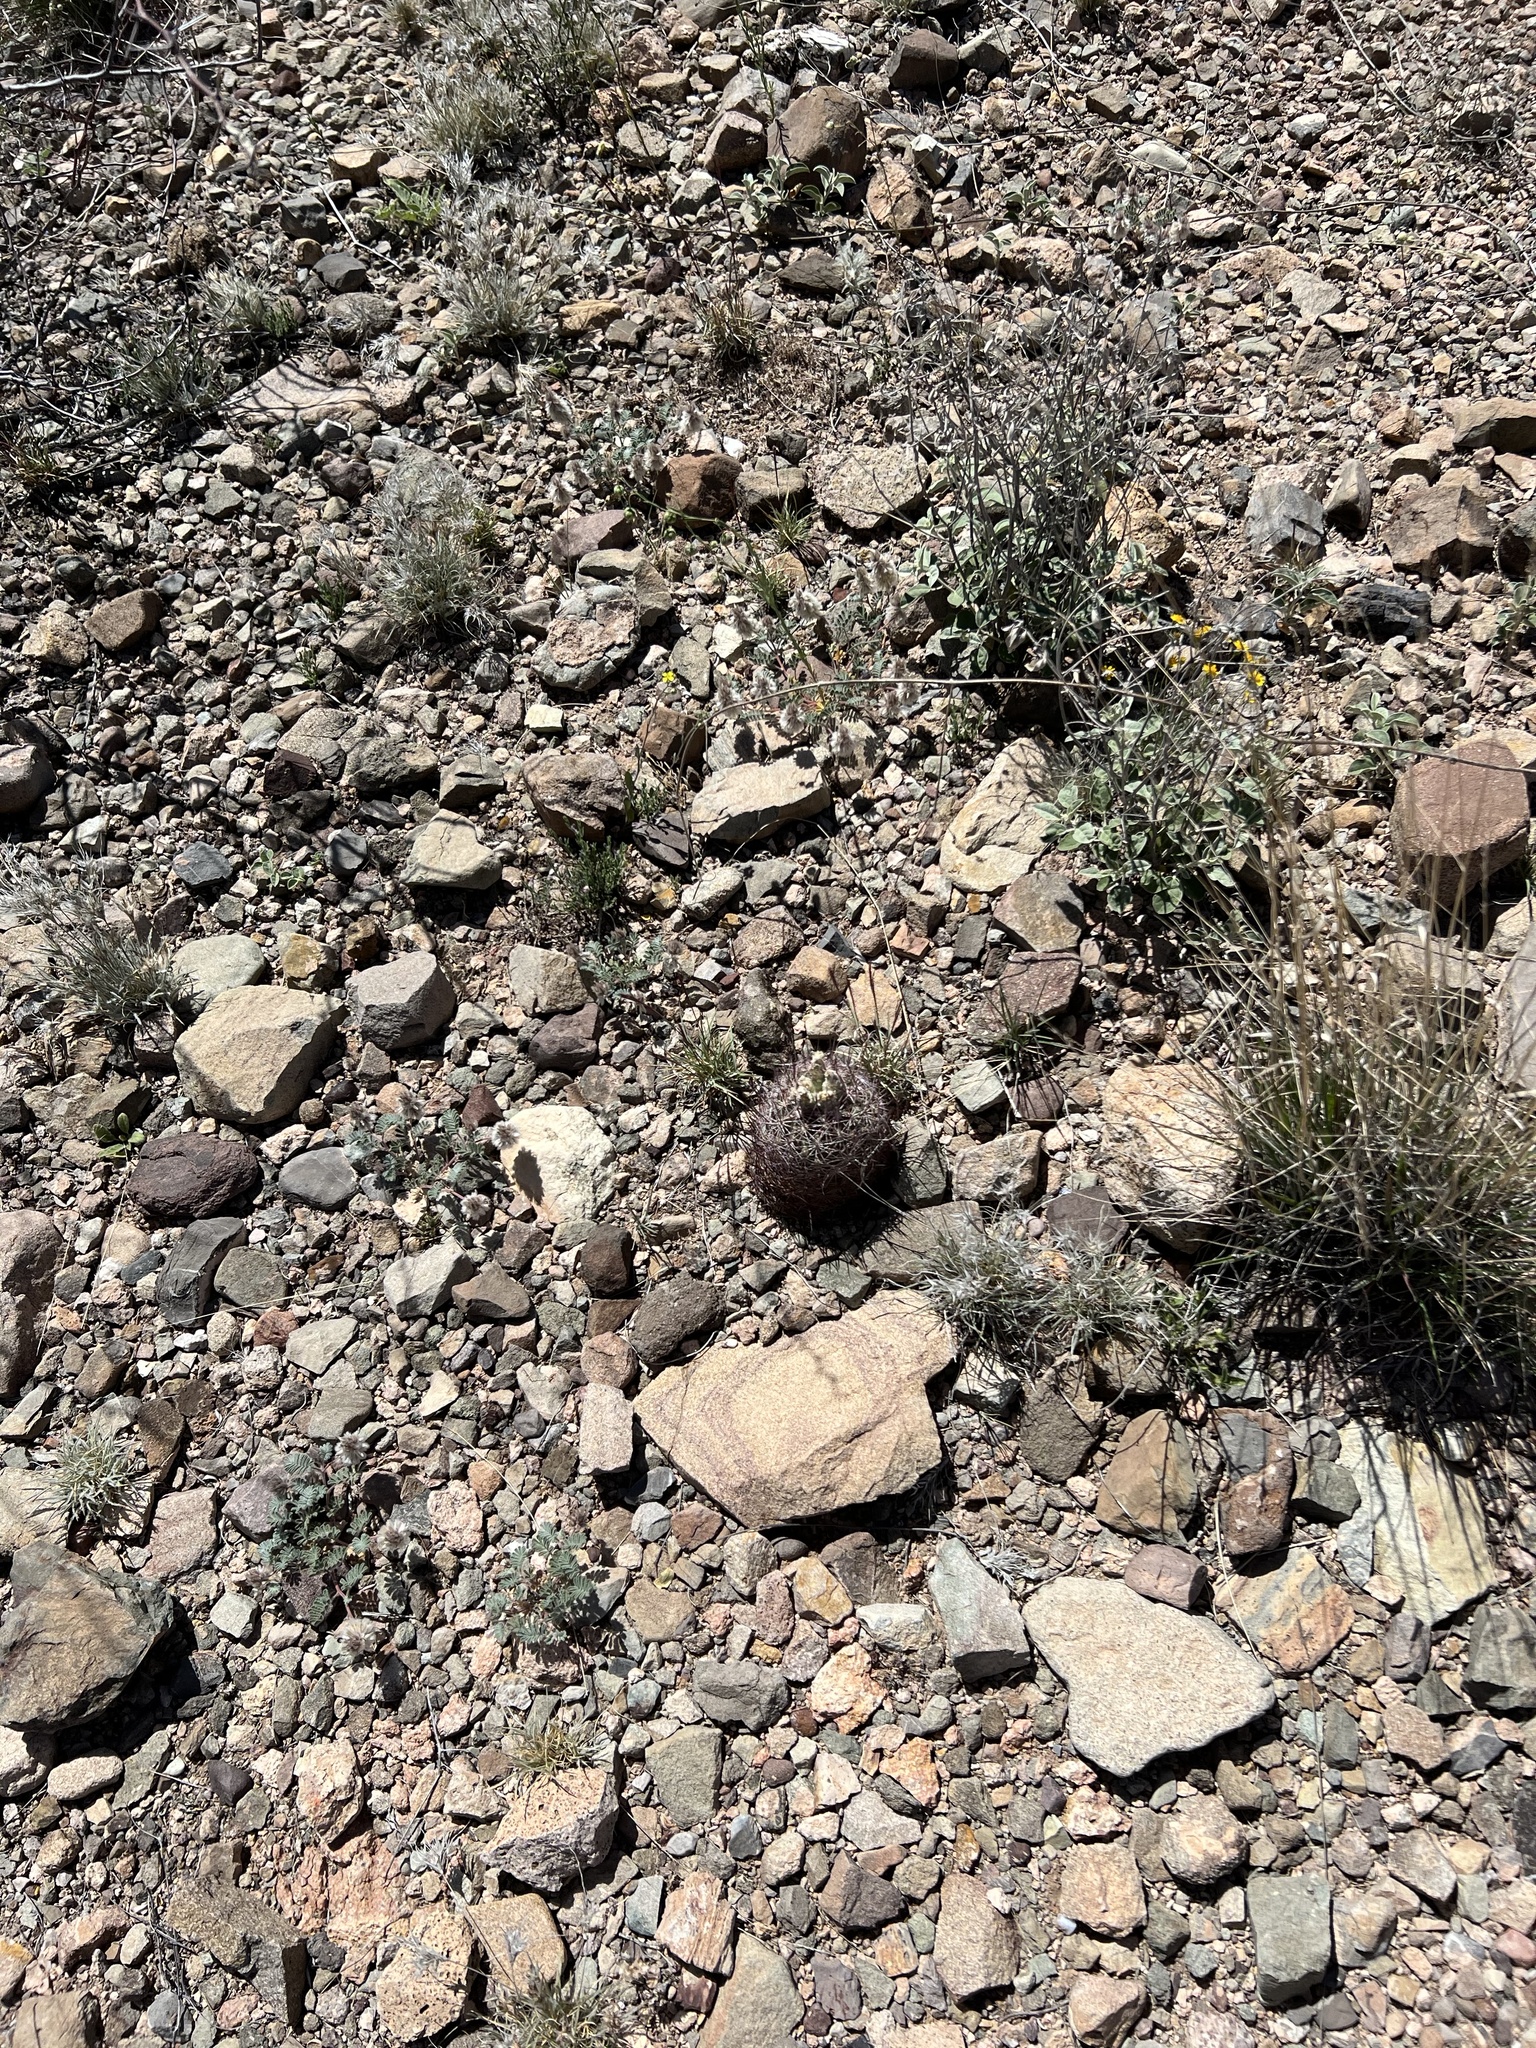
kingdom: Plantae
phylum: Tracheophyta
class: Magnoliopsida
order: Caryophyllales
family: Cactaceae
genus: Sclerocactus
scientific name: Sclerocactus johnsonii
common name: Eight-spine fishhook cactus
